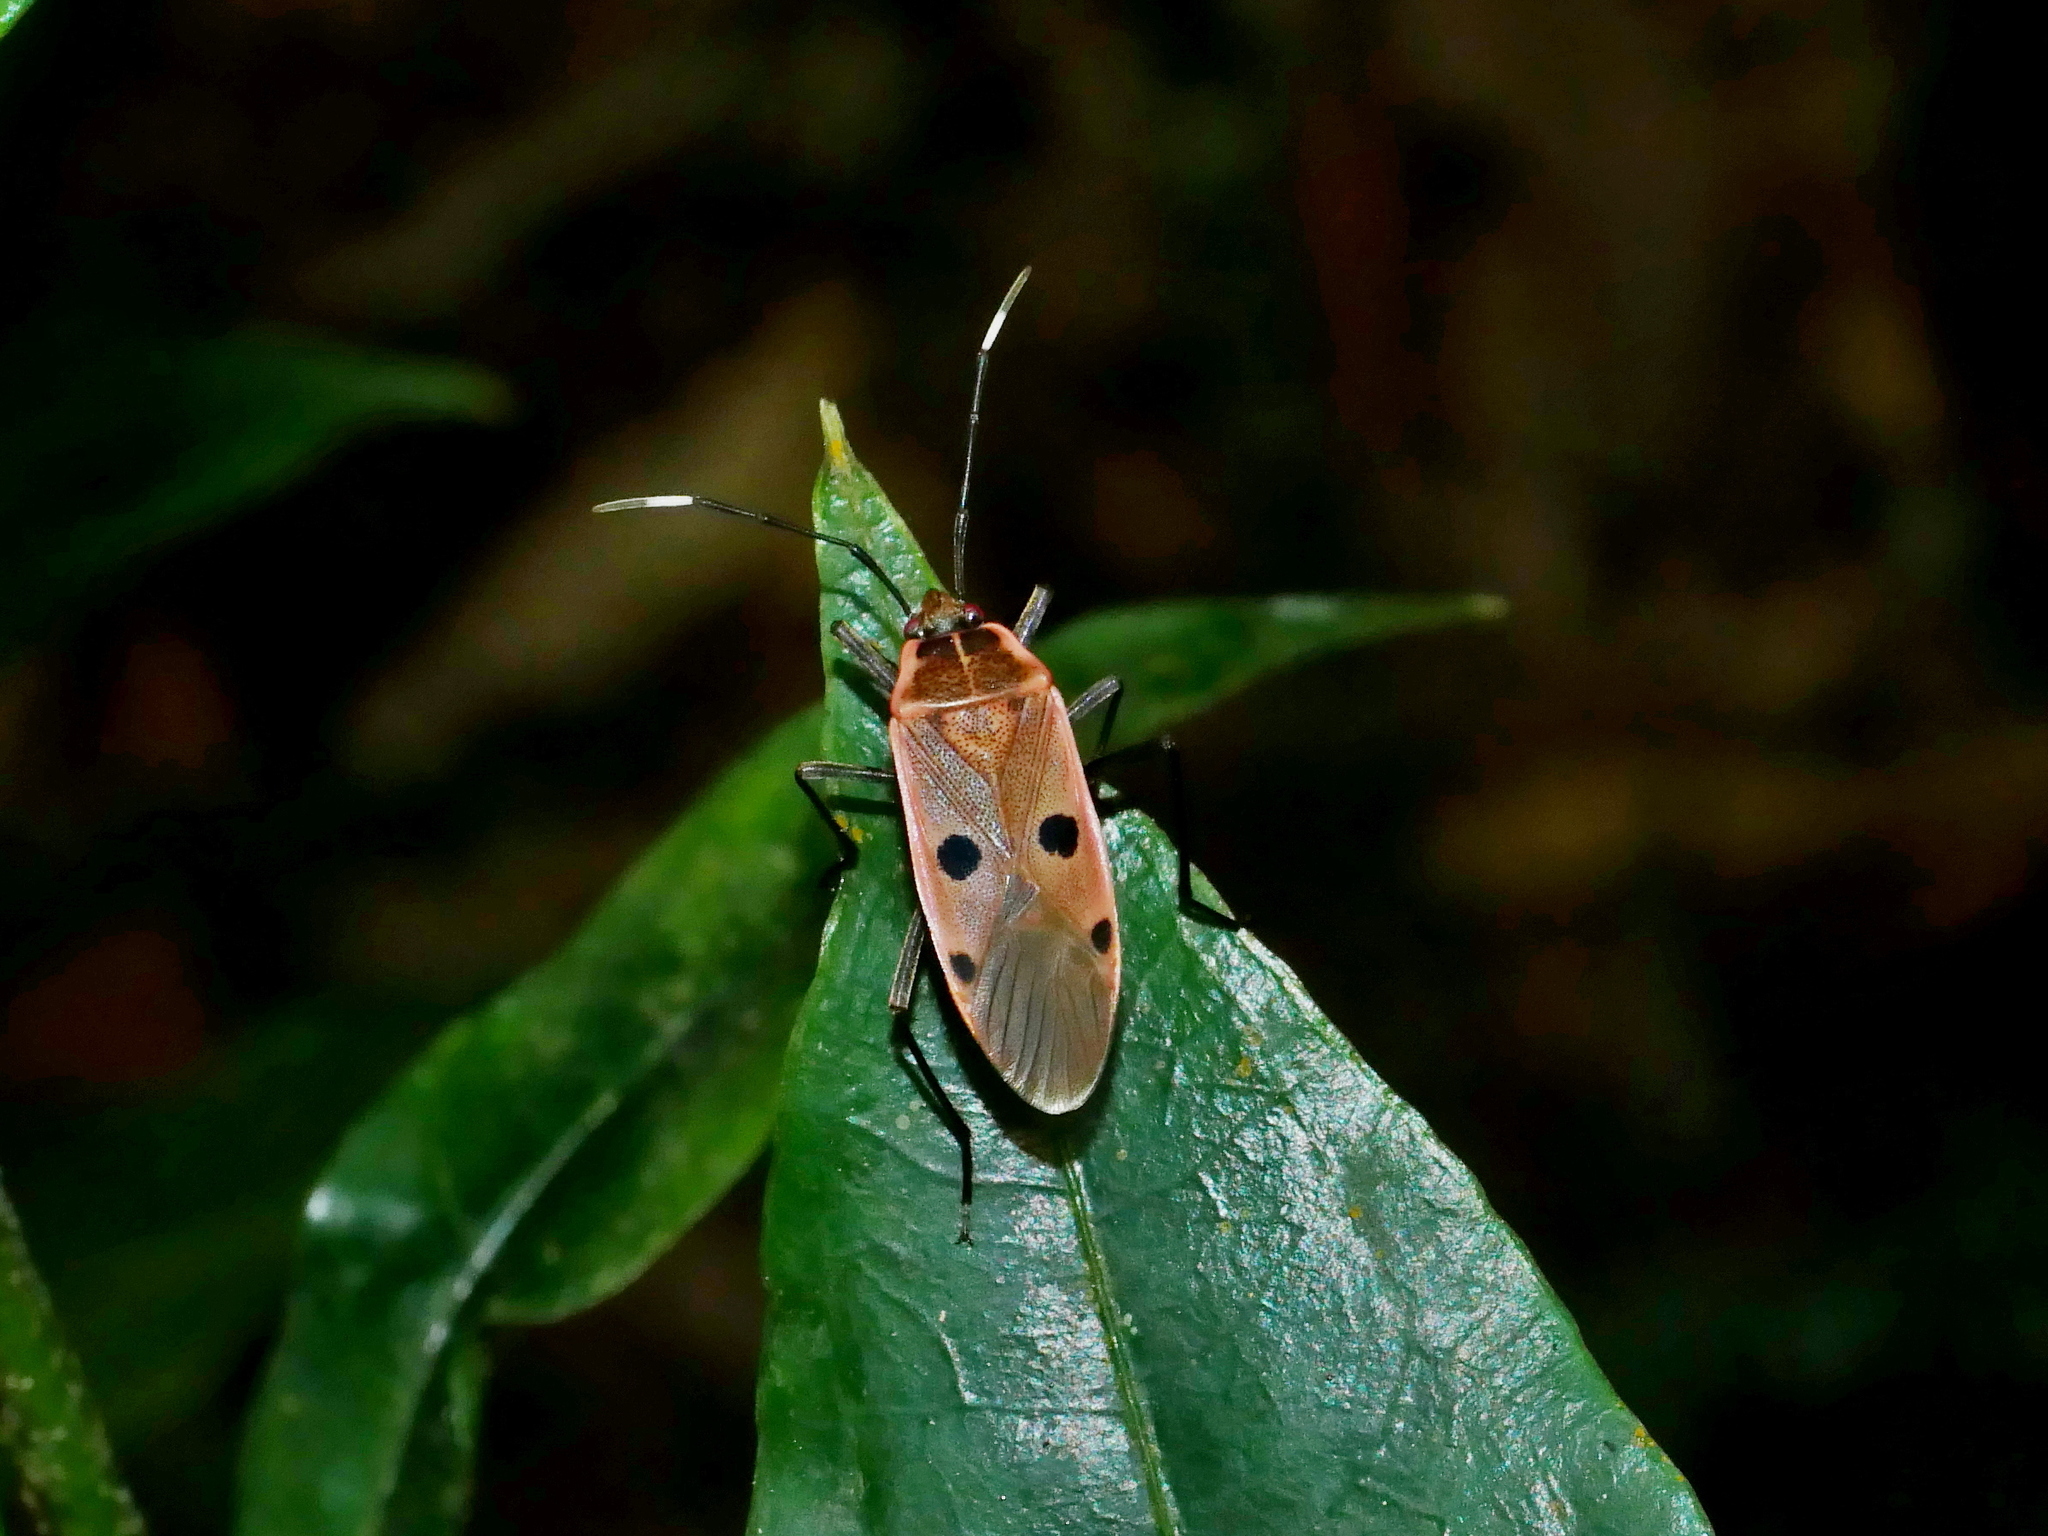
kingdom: Animalia
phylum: Arthropoda
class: Insecta
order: Hemiptera
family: Largidae
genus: Physopelta
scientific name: Physopelta quadriguttata
